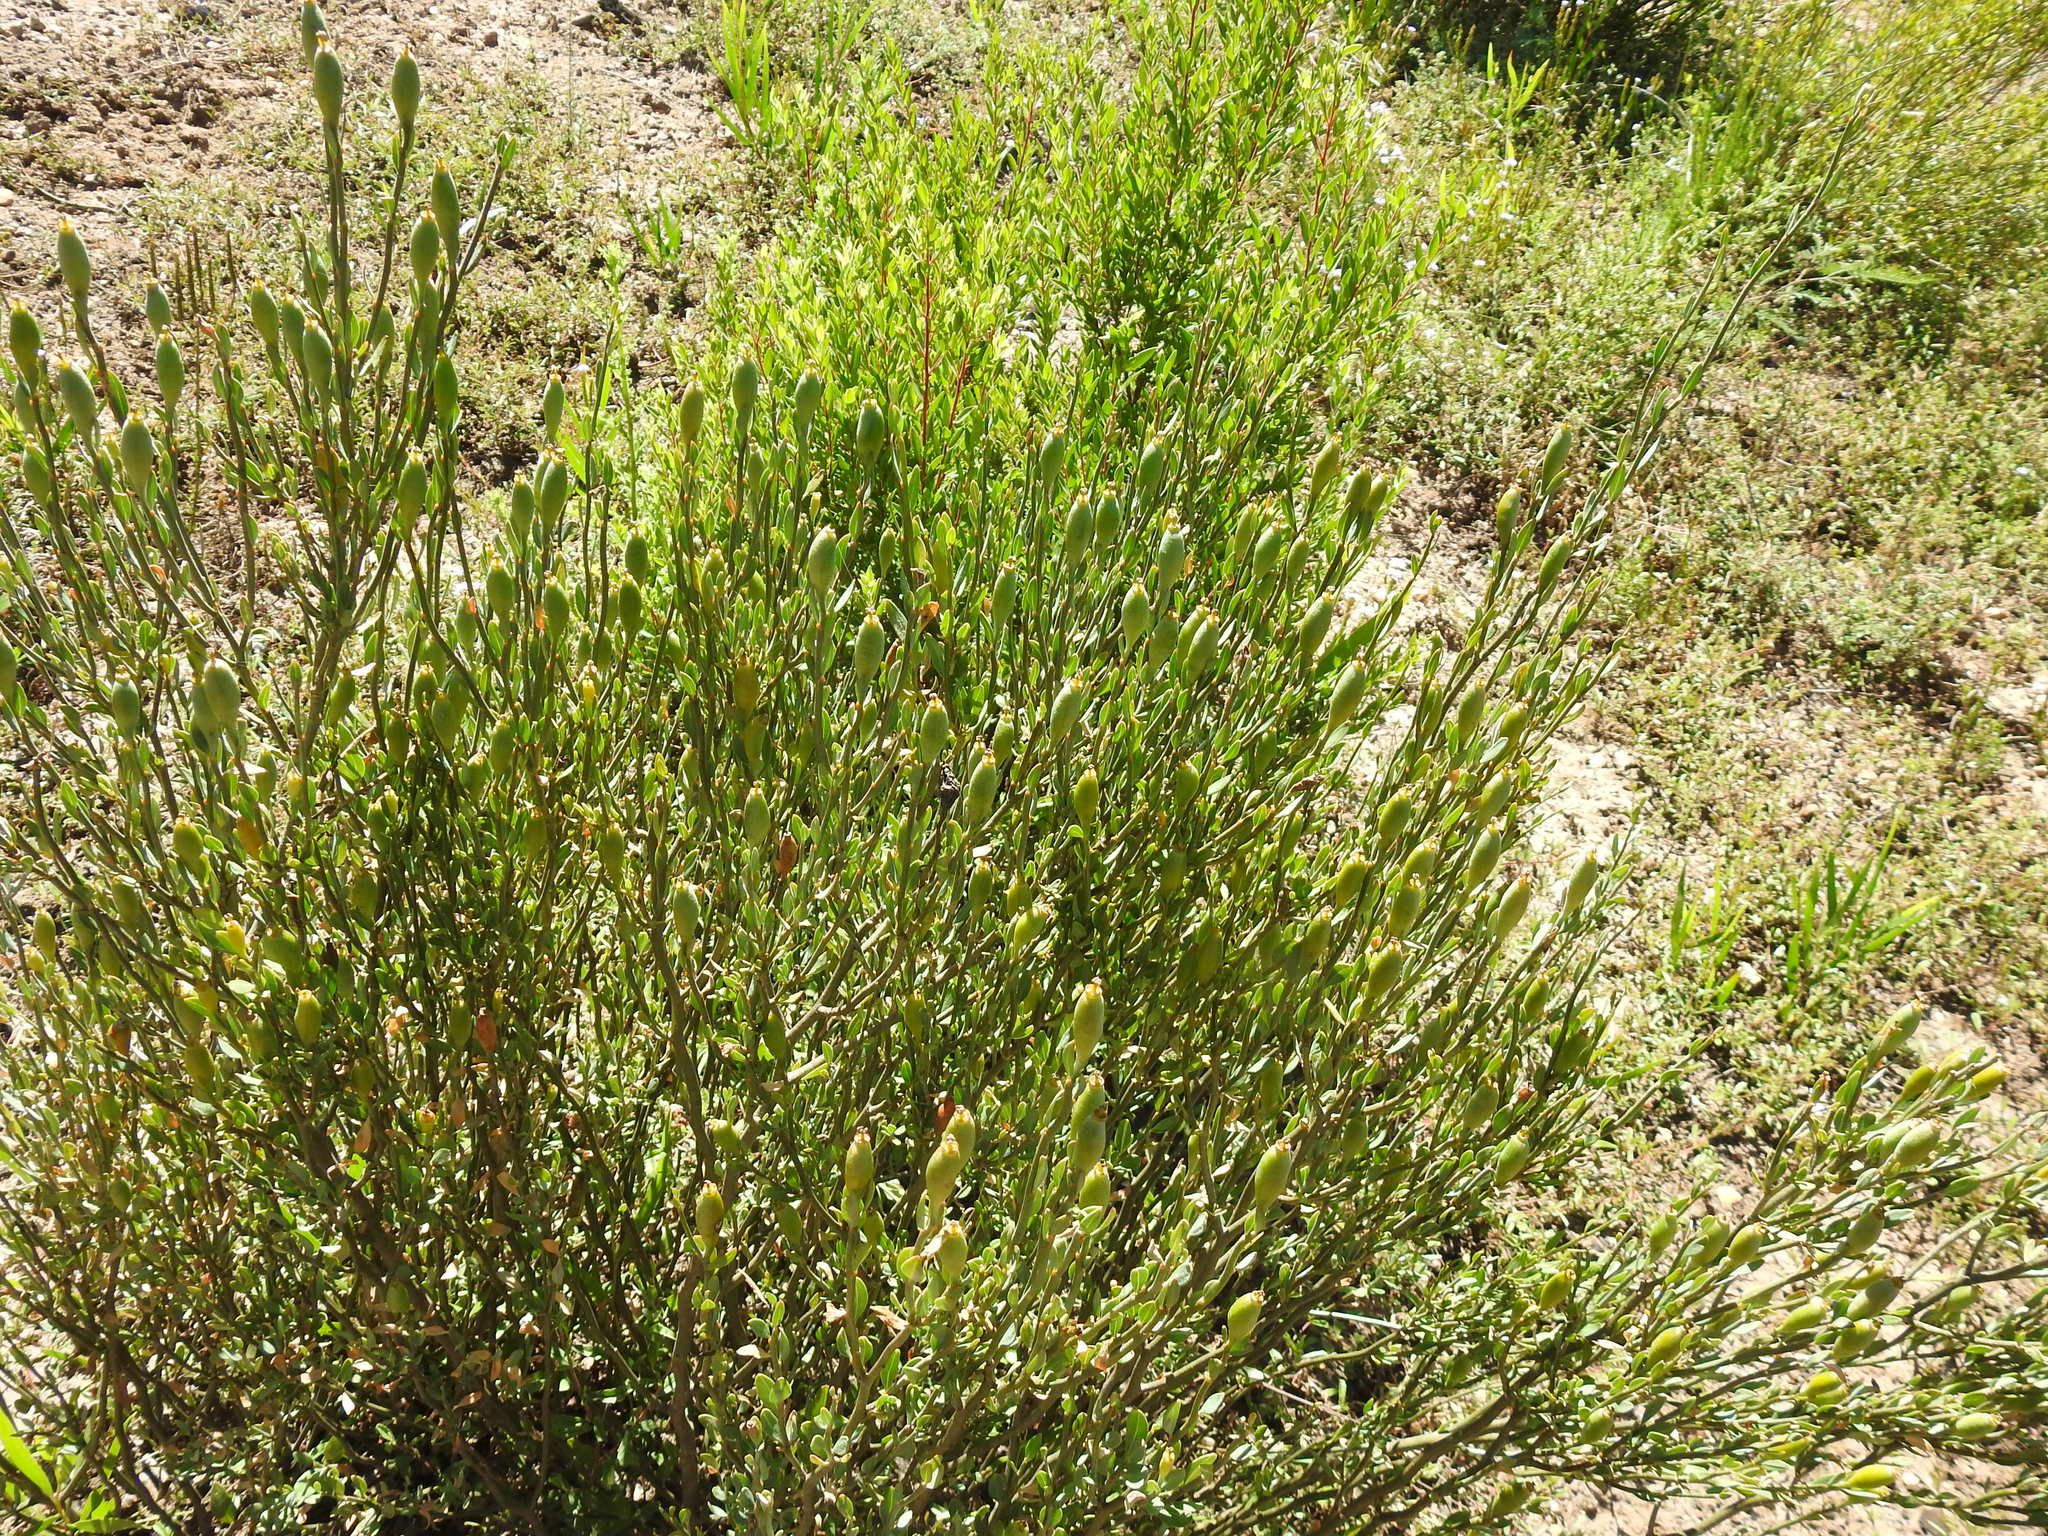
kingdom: Plantae
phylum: Tracheophyta
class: Magnoliopsida
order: Solanales
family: Montiniaceae
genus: Montinia
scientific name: Montinia caryophyllacea
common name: Wild clove-bush
